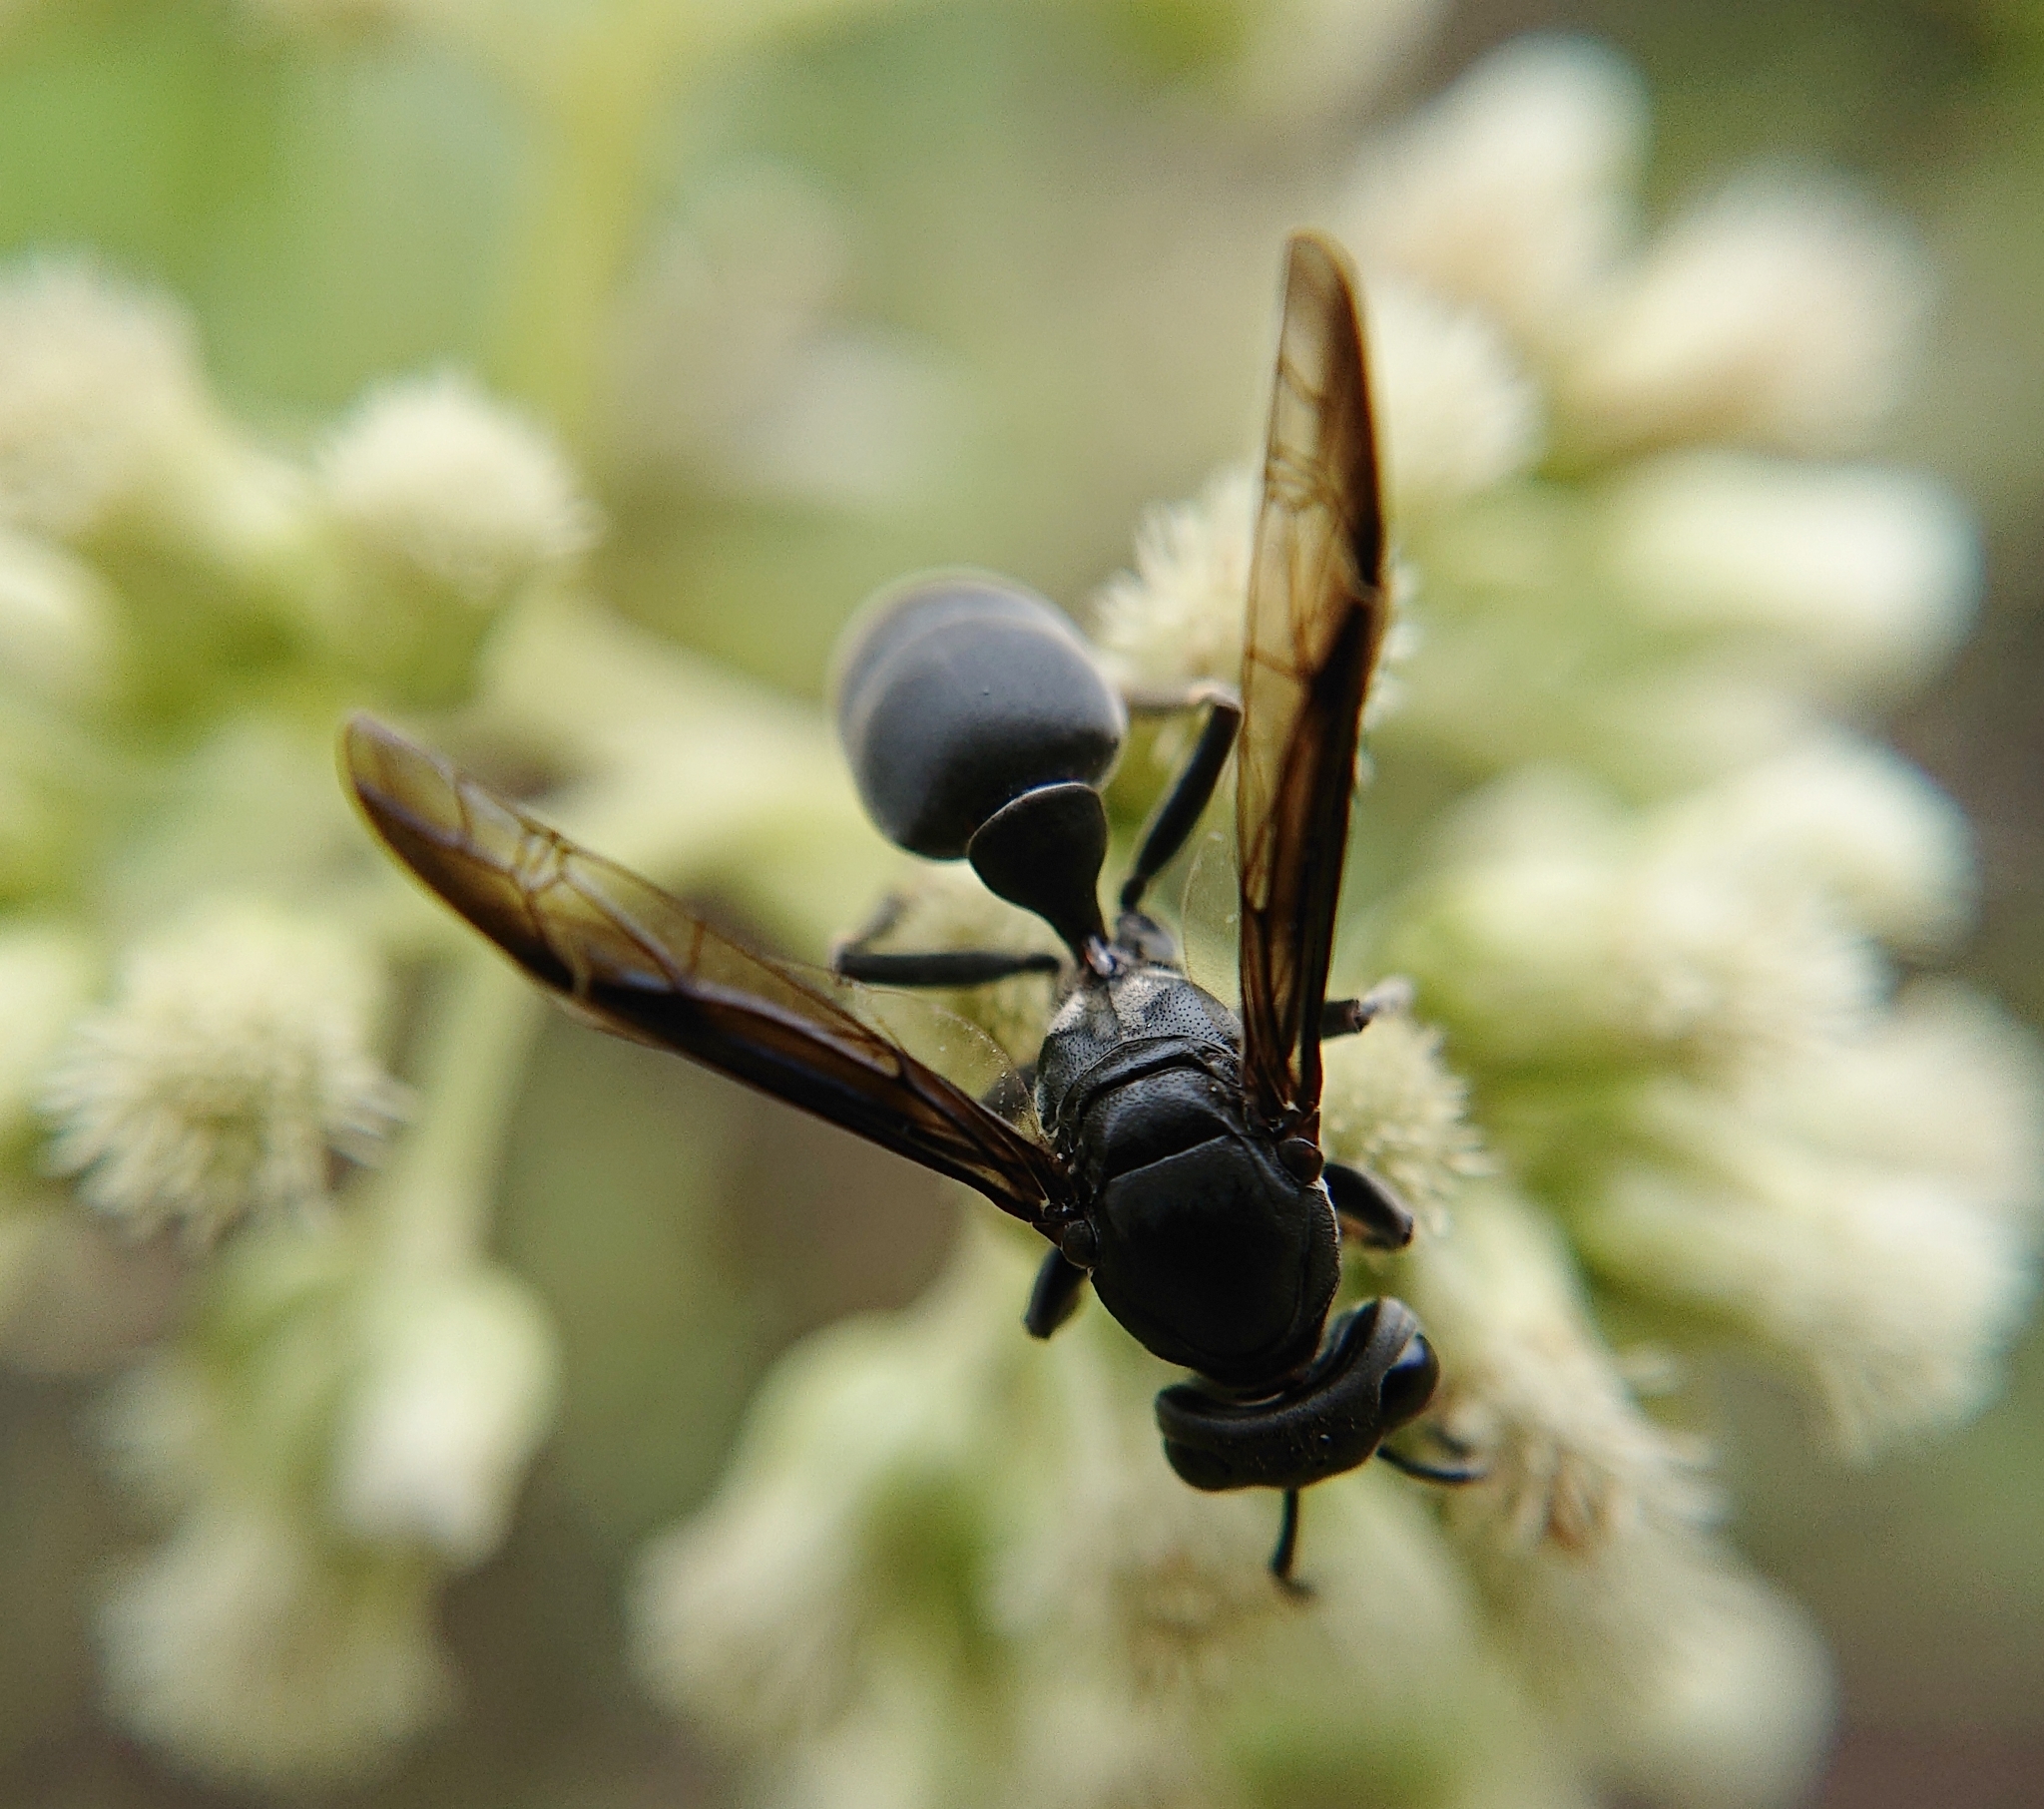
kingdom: Animalia
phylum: Arthropoda
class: Insecta
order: Hymenoptera
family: Eumenidae
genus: Polybia
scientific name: Polybia simillima
